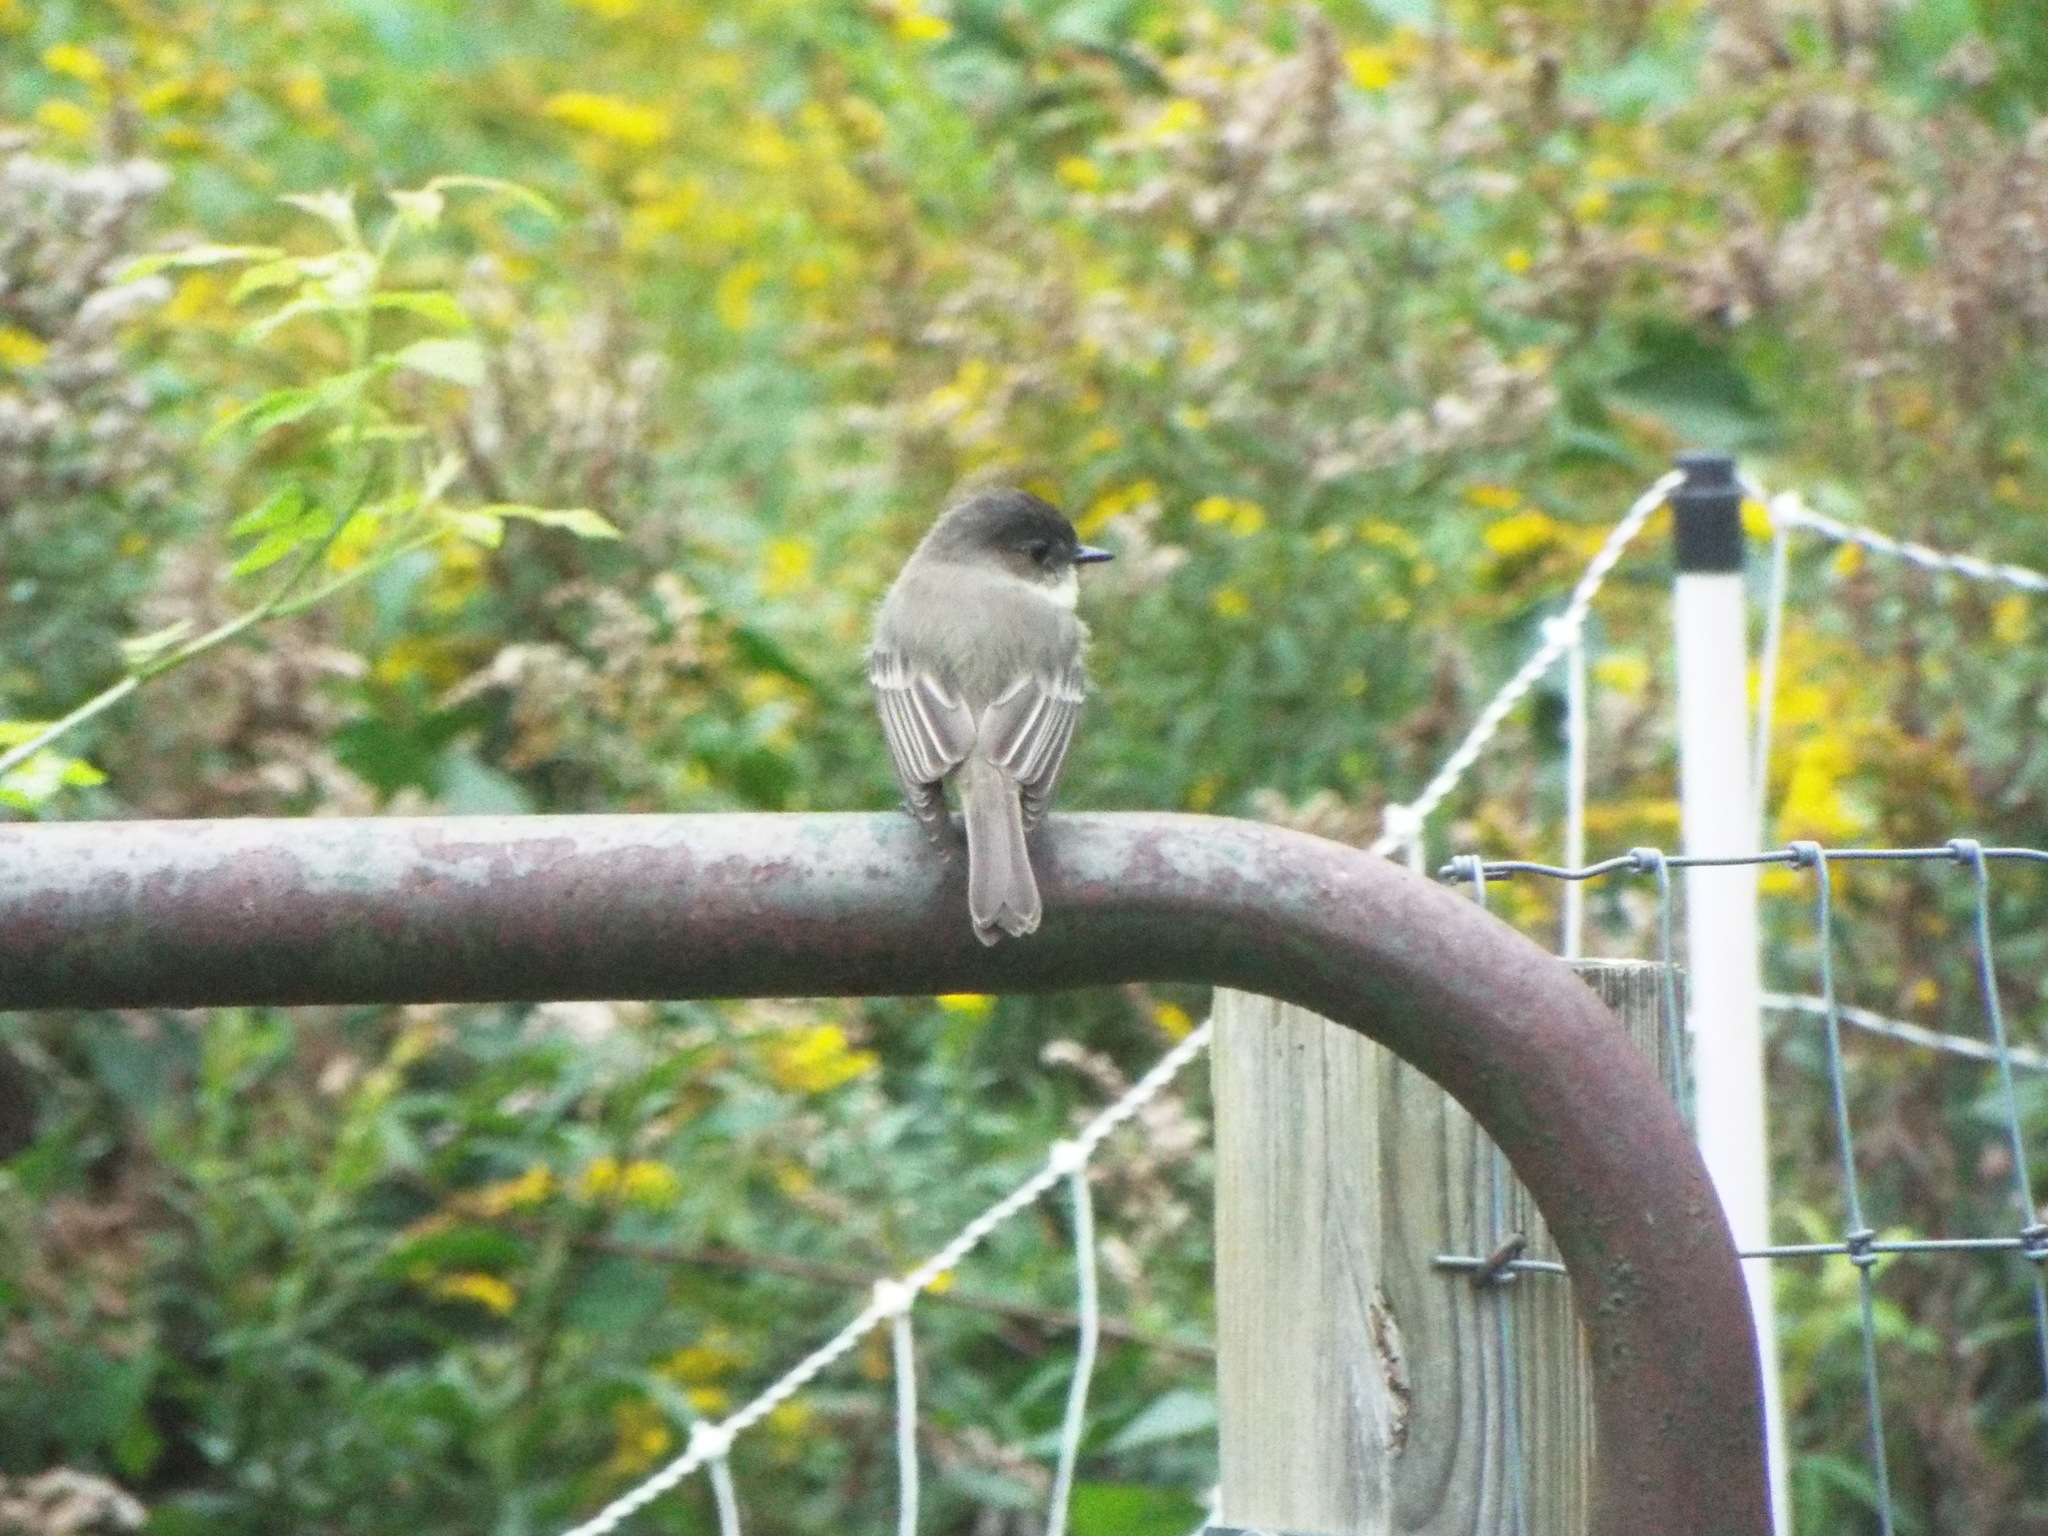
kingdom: Animalia
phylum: Chordata
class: Aves
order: Passeriformes
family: Tyrannidae
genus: Sayornis
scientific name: Sayornis phoebe
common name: Eastern phoebe
